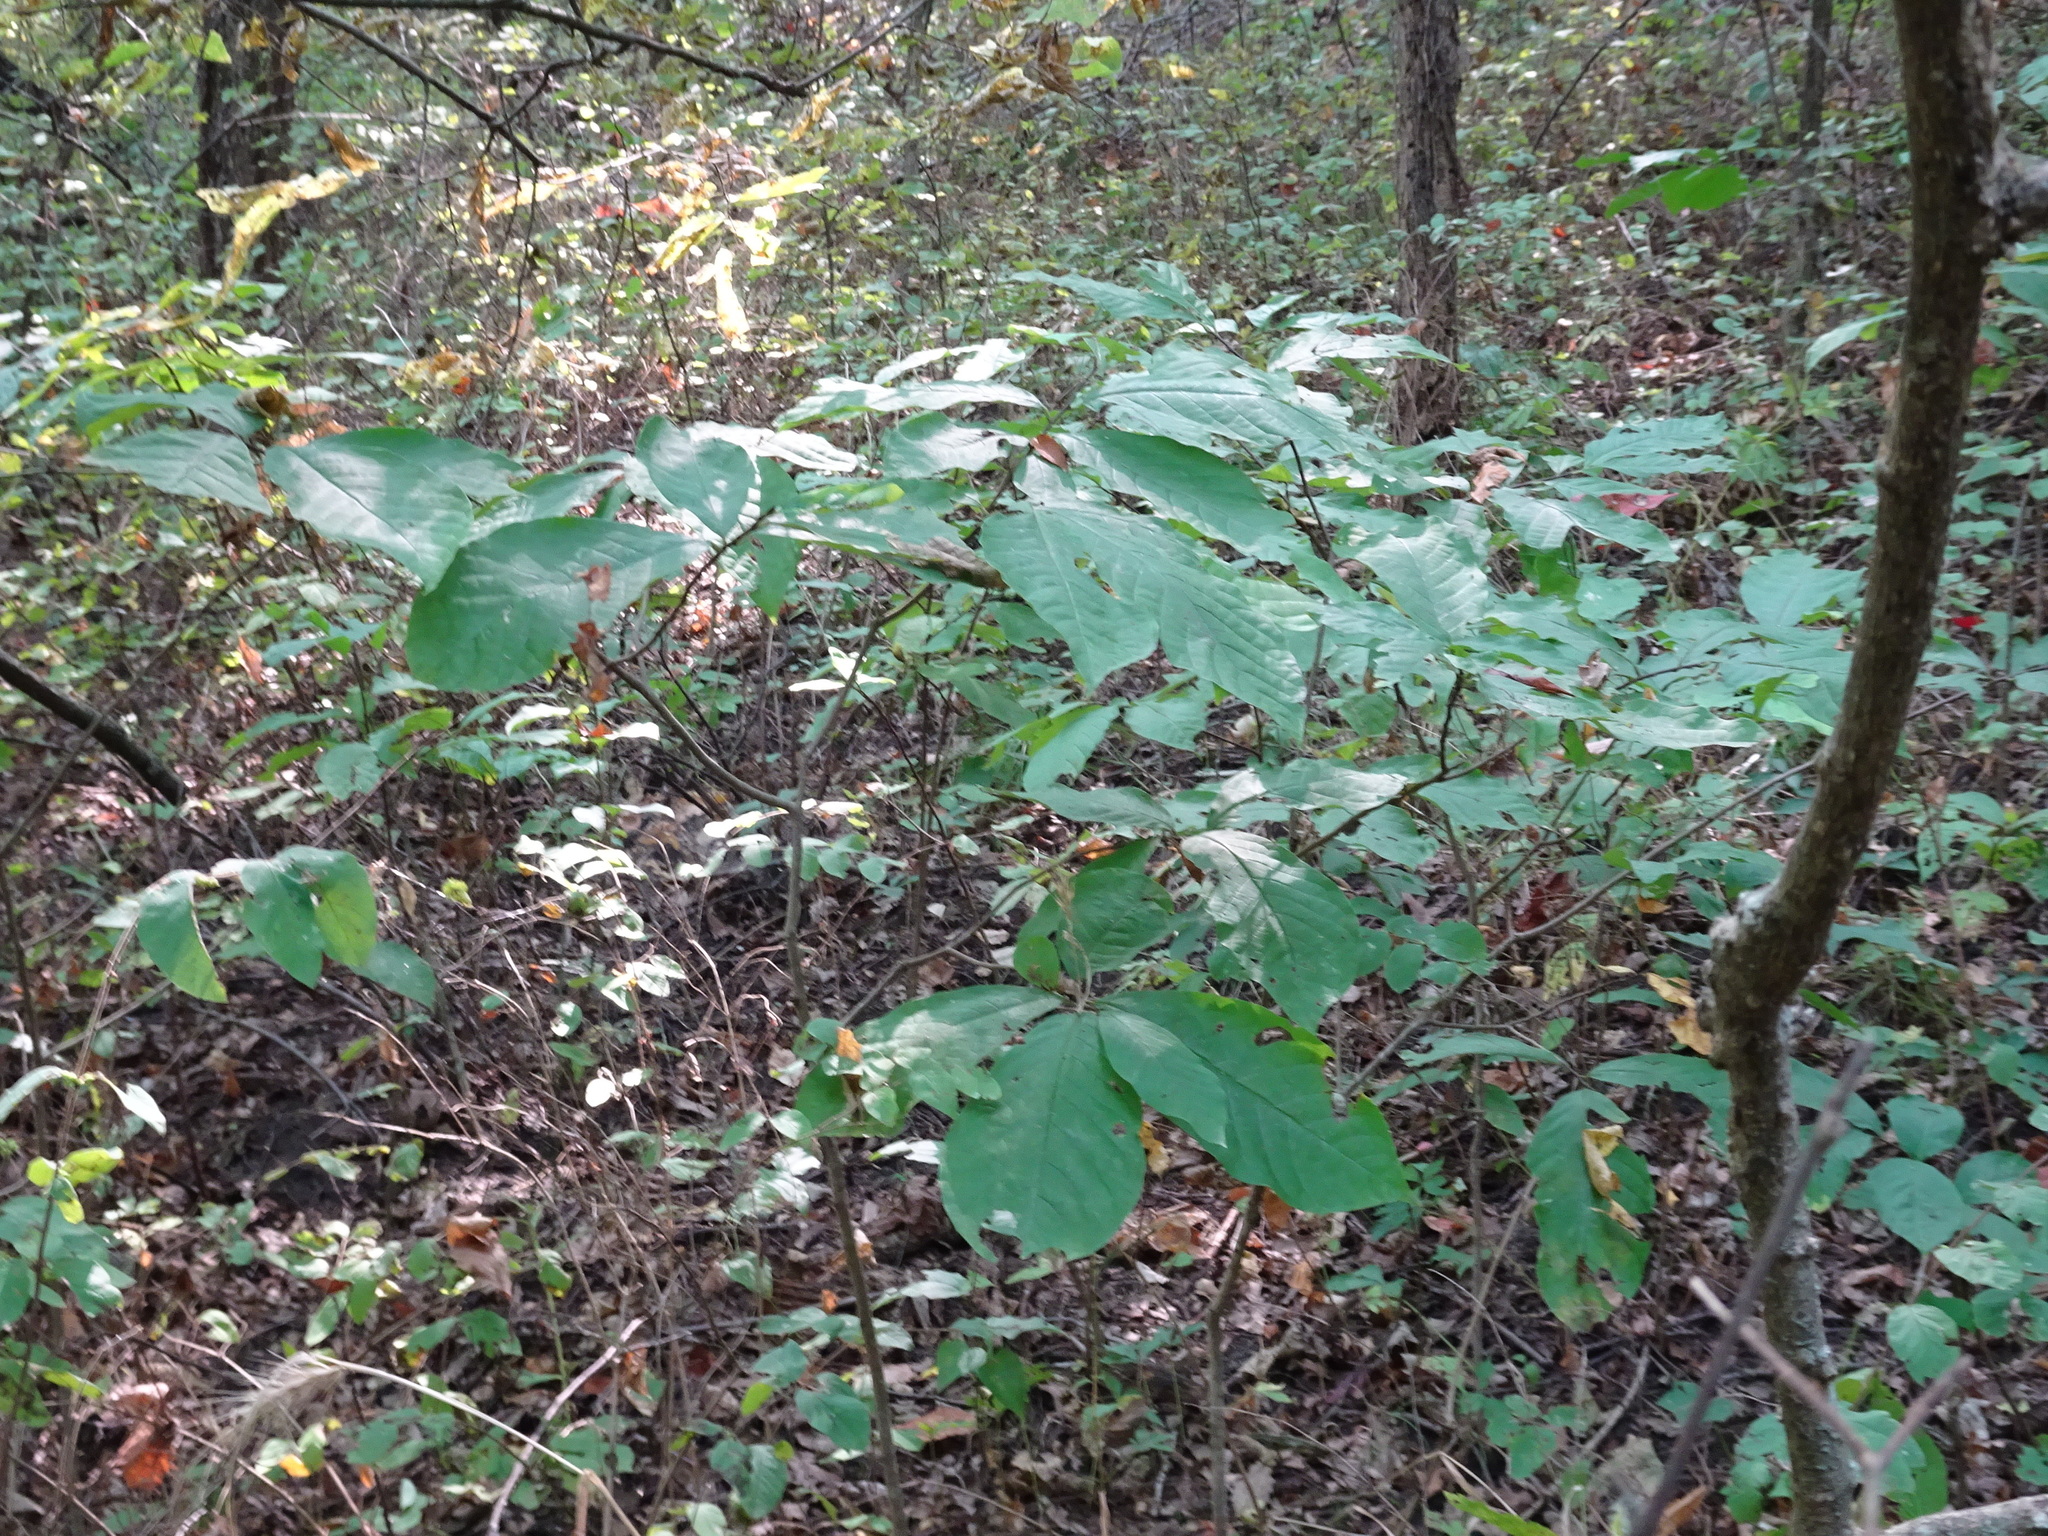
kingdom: Plantae
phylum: Tracheophyta
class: Magnoliopsida
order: Magnoliales
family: Annonaceae
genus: Asimina
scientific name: Asimina triloba
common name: Dog-banana
